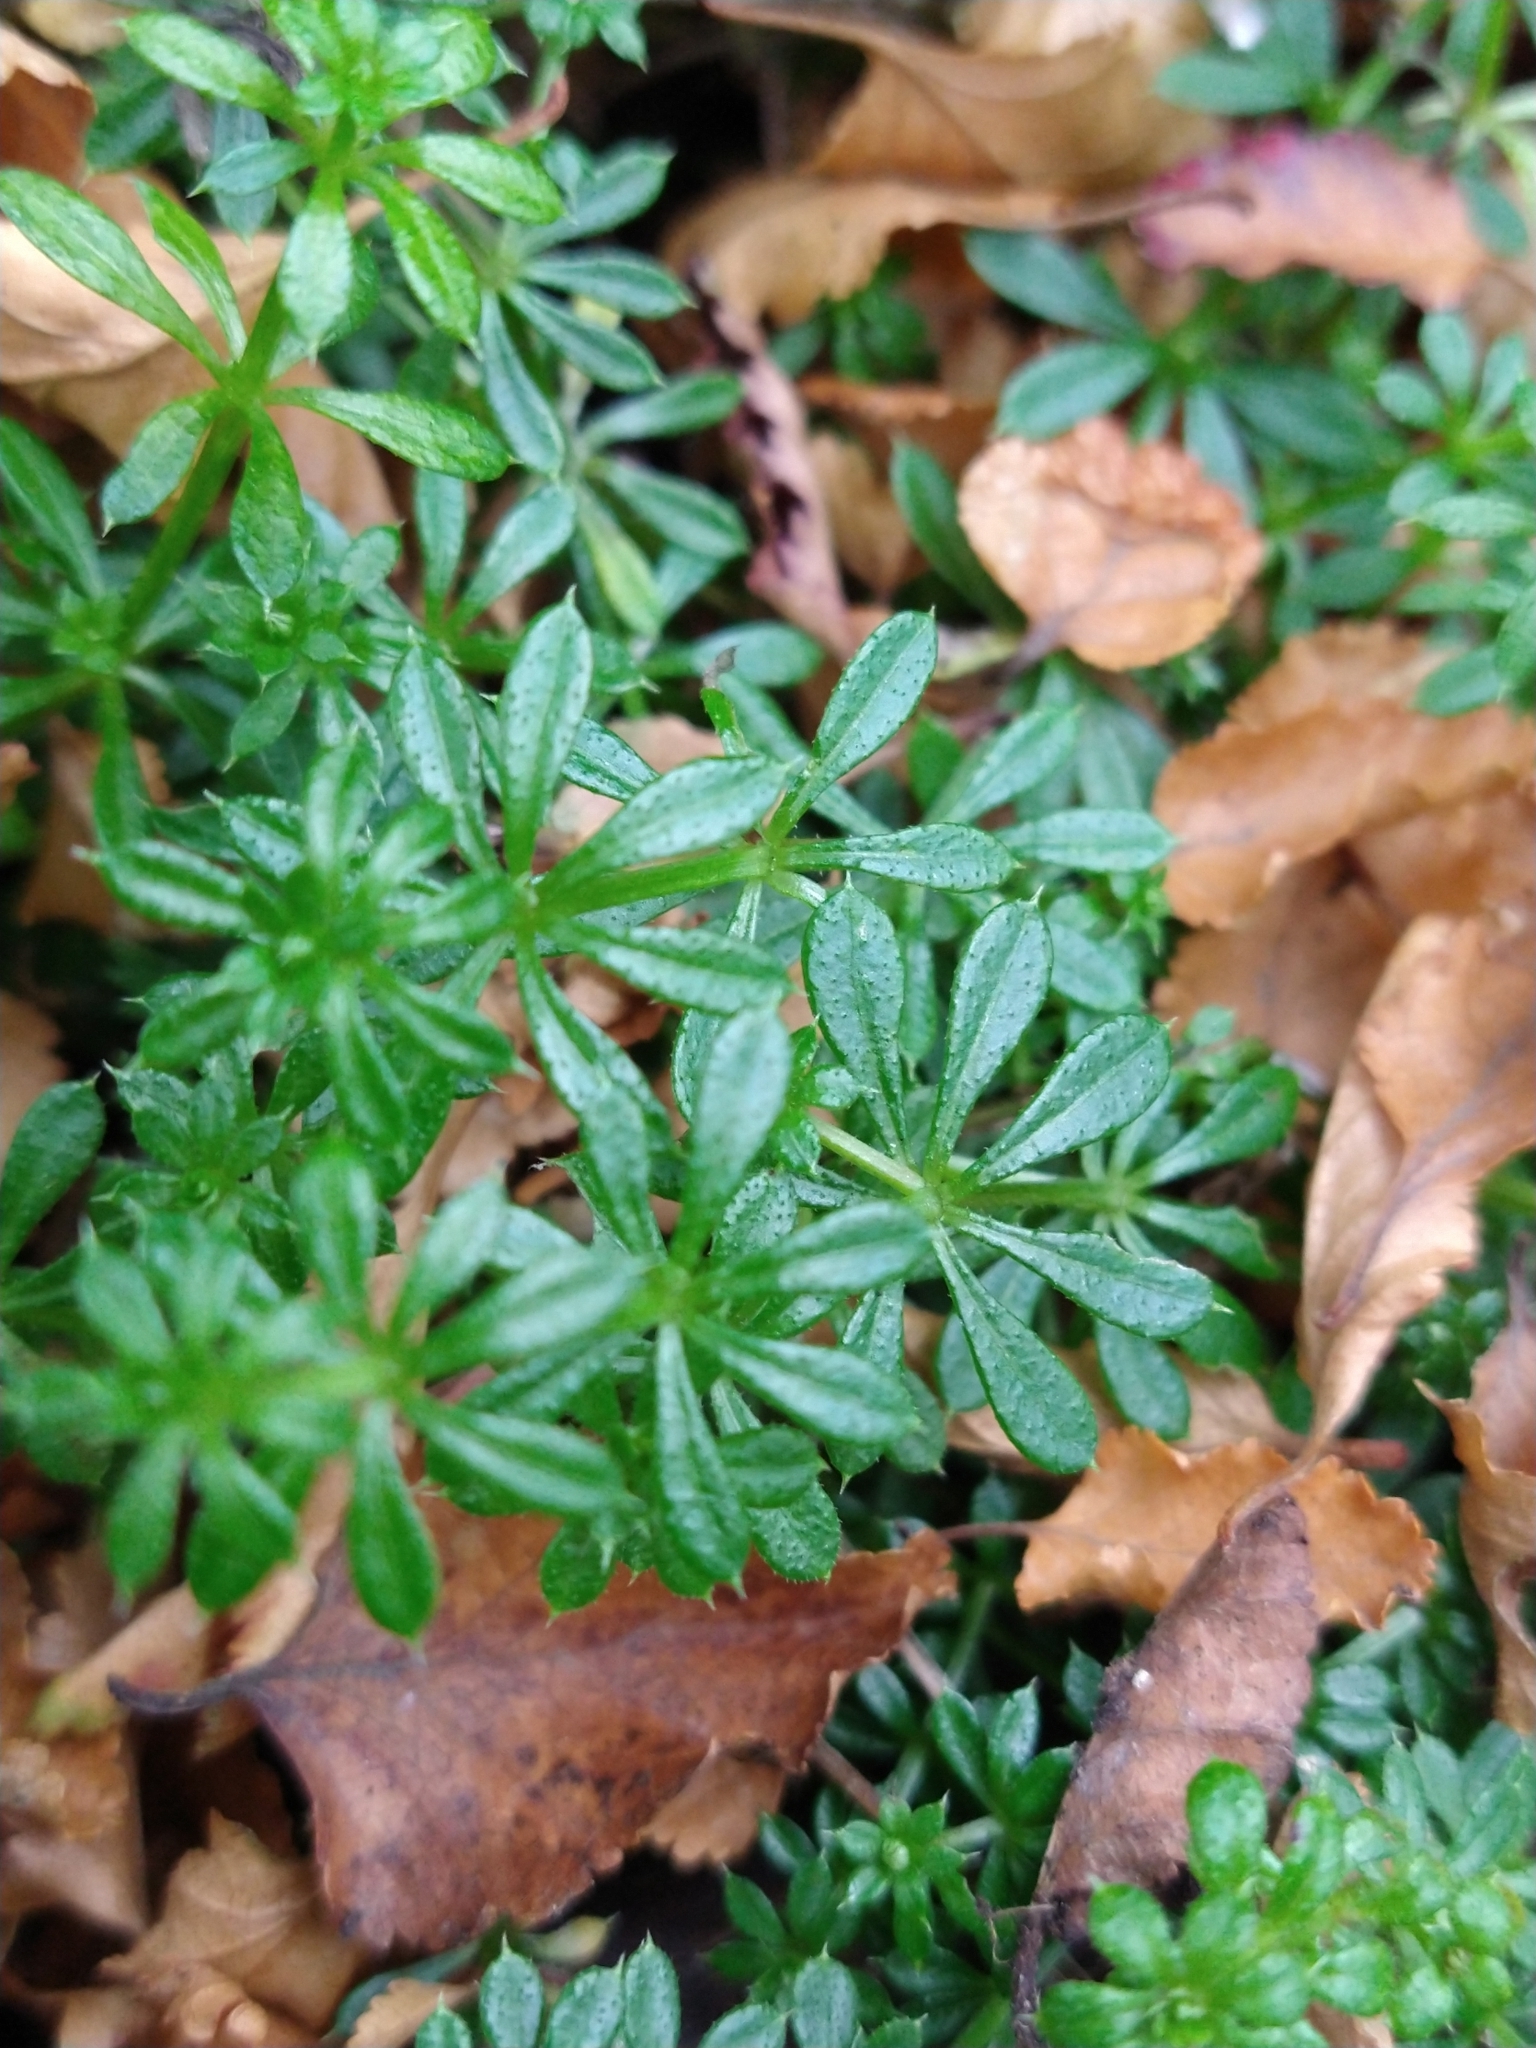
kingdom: Plantae
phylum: Tracheophyta
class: Magnoliopsida
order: Gentianales
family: Rubiaceae
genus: Galium
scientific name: Galium aparine
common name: Cleavers
